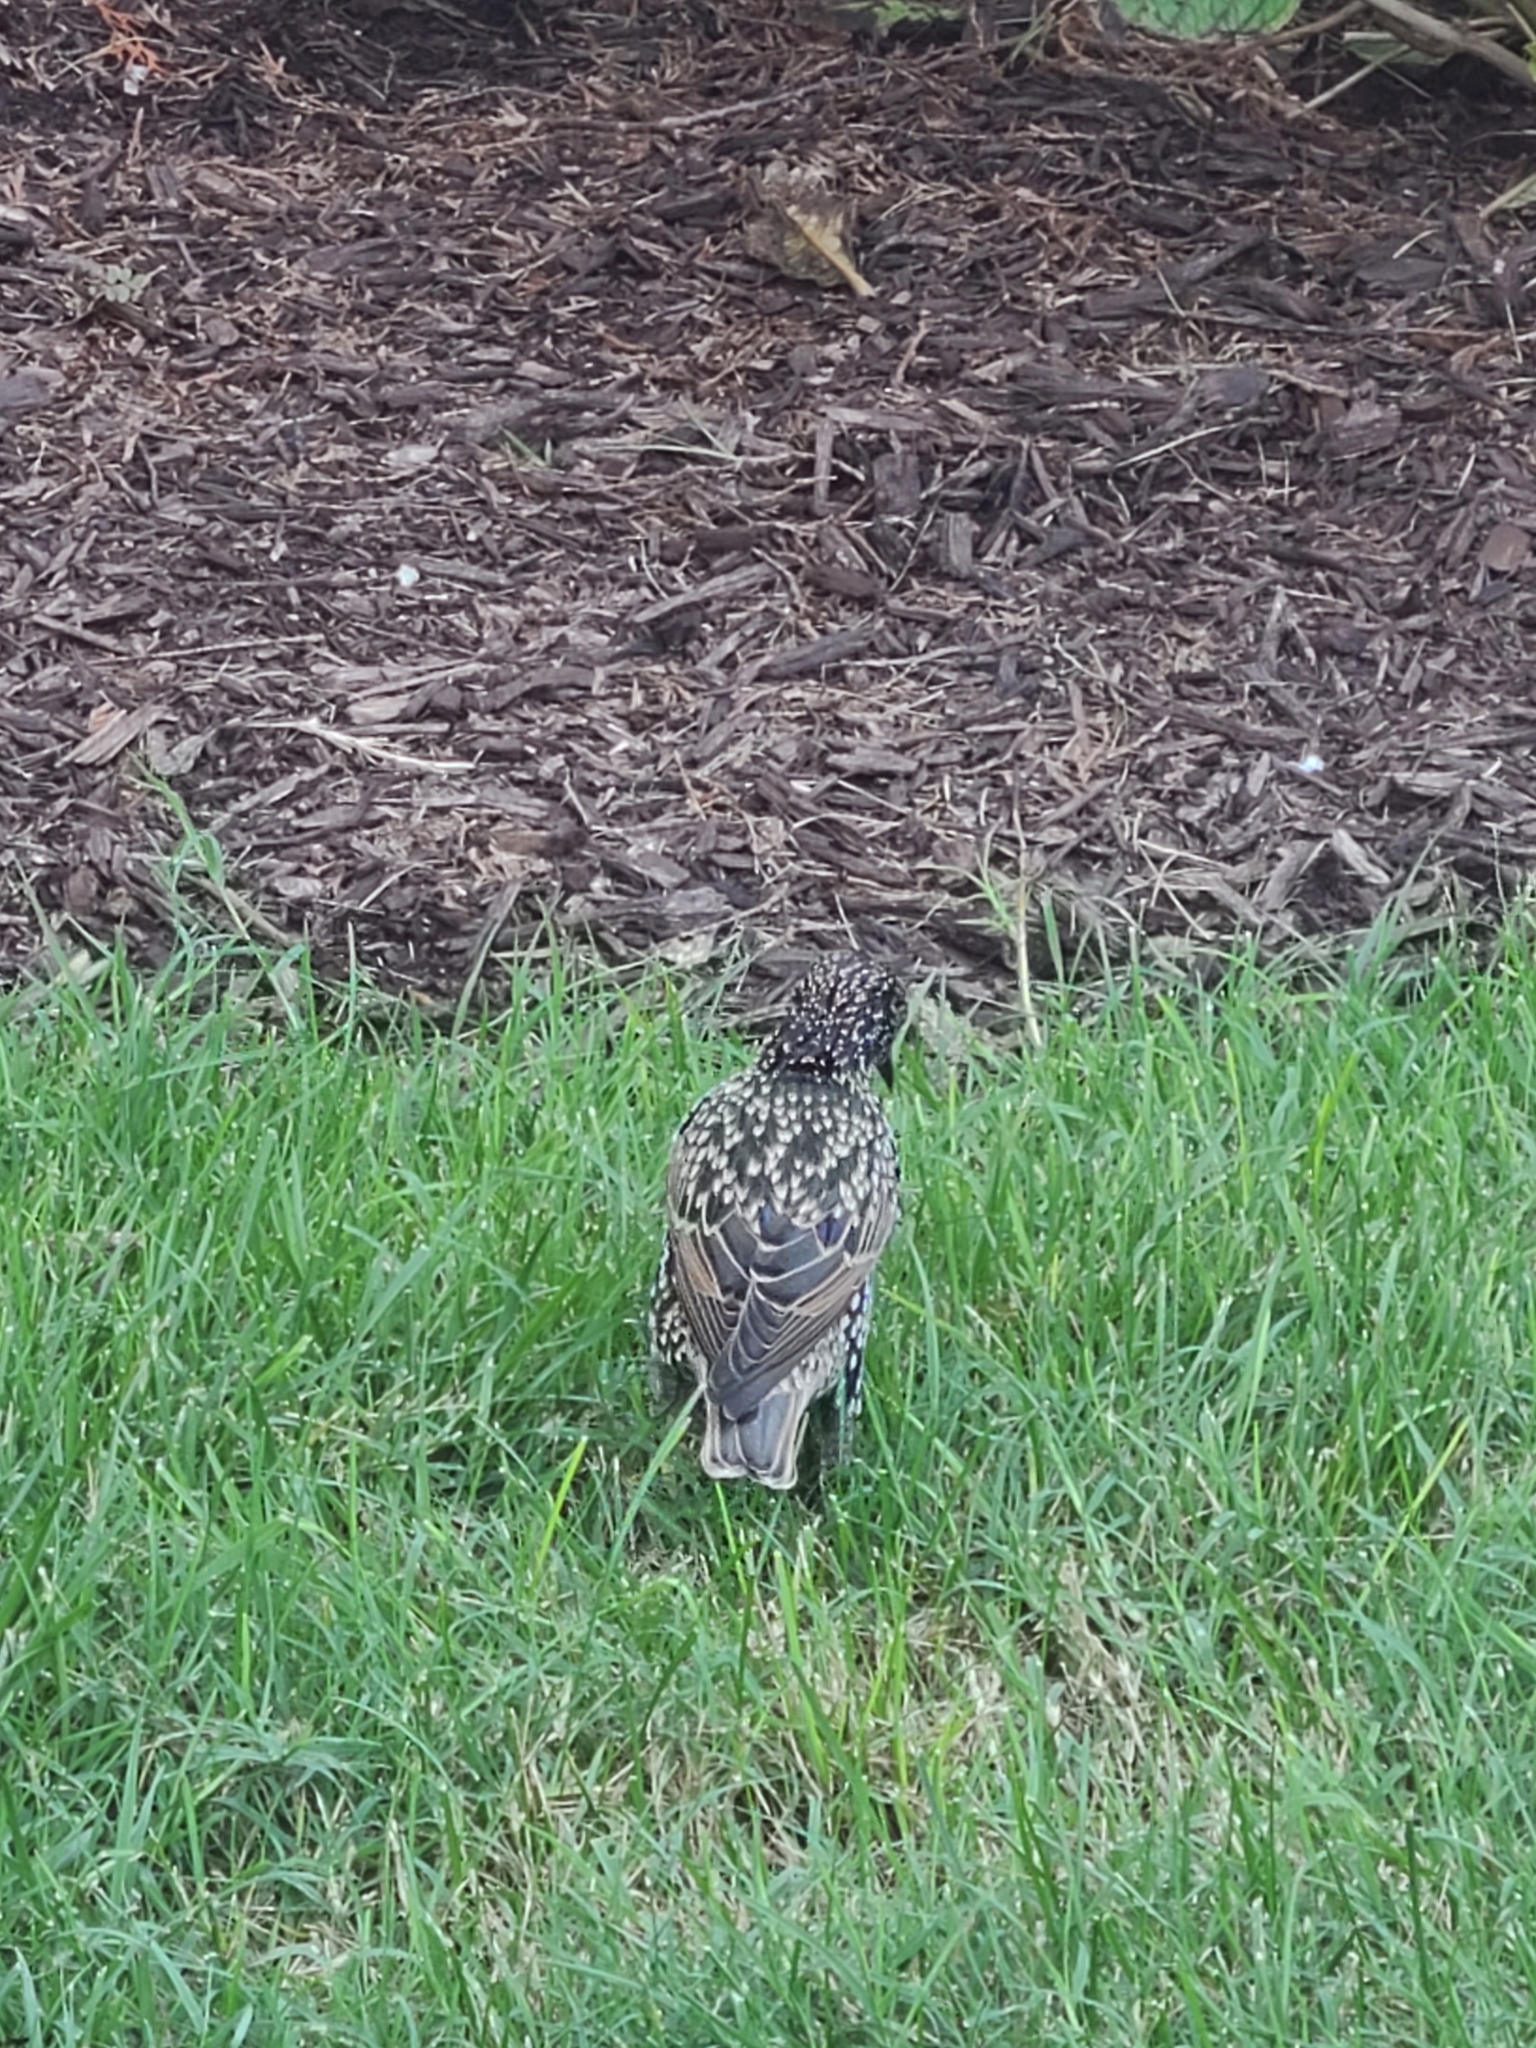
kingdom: Animalia
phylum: Chordata
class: Aves
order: Passeriformes
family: Sturnidae
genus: Sturnus
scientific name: Sturnus vulgaris
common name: Common starling
